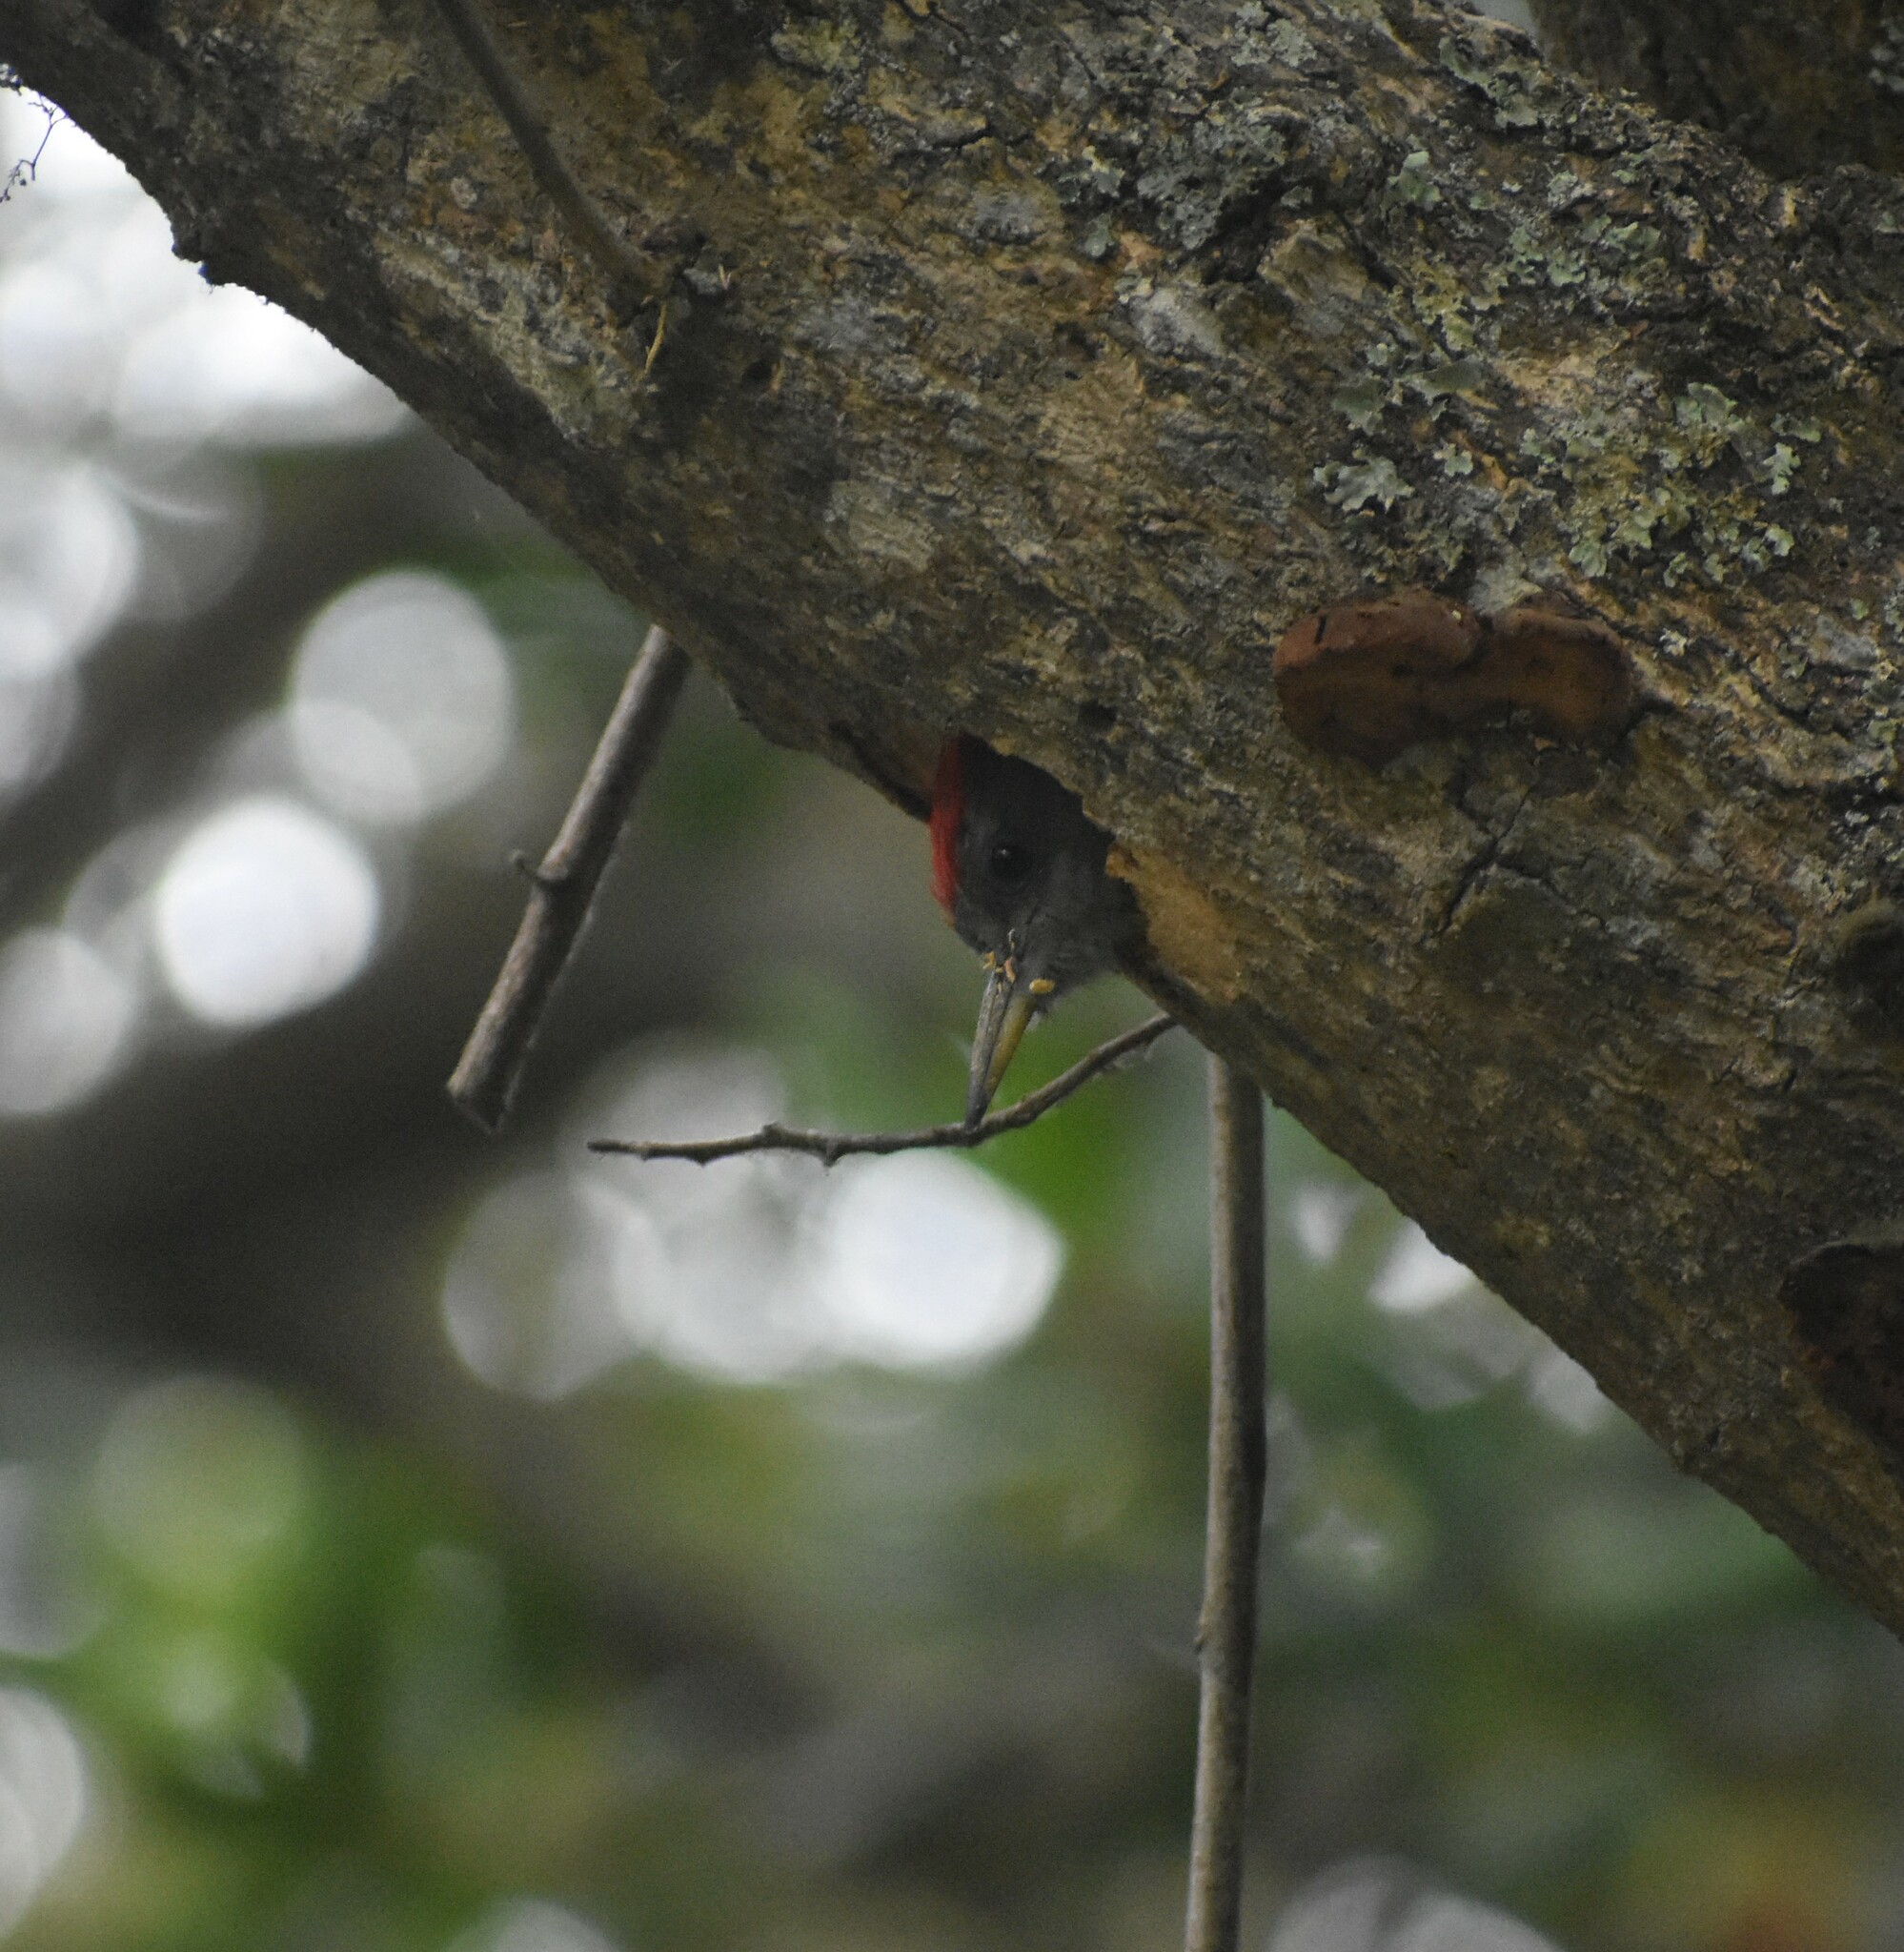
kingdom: Animalia
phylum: Chordata
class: Aves
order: Piciformes
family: Picidae
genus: Dendropicos
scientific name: Dendropicos griseocephalus
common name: Olive woodpecker
